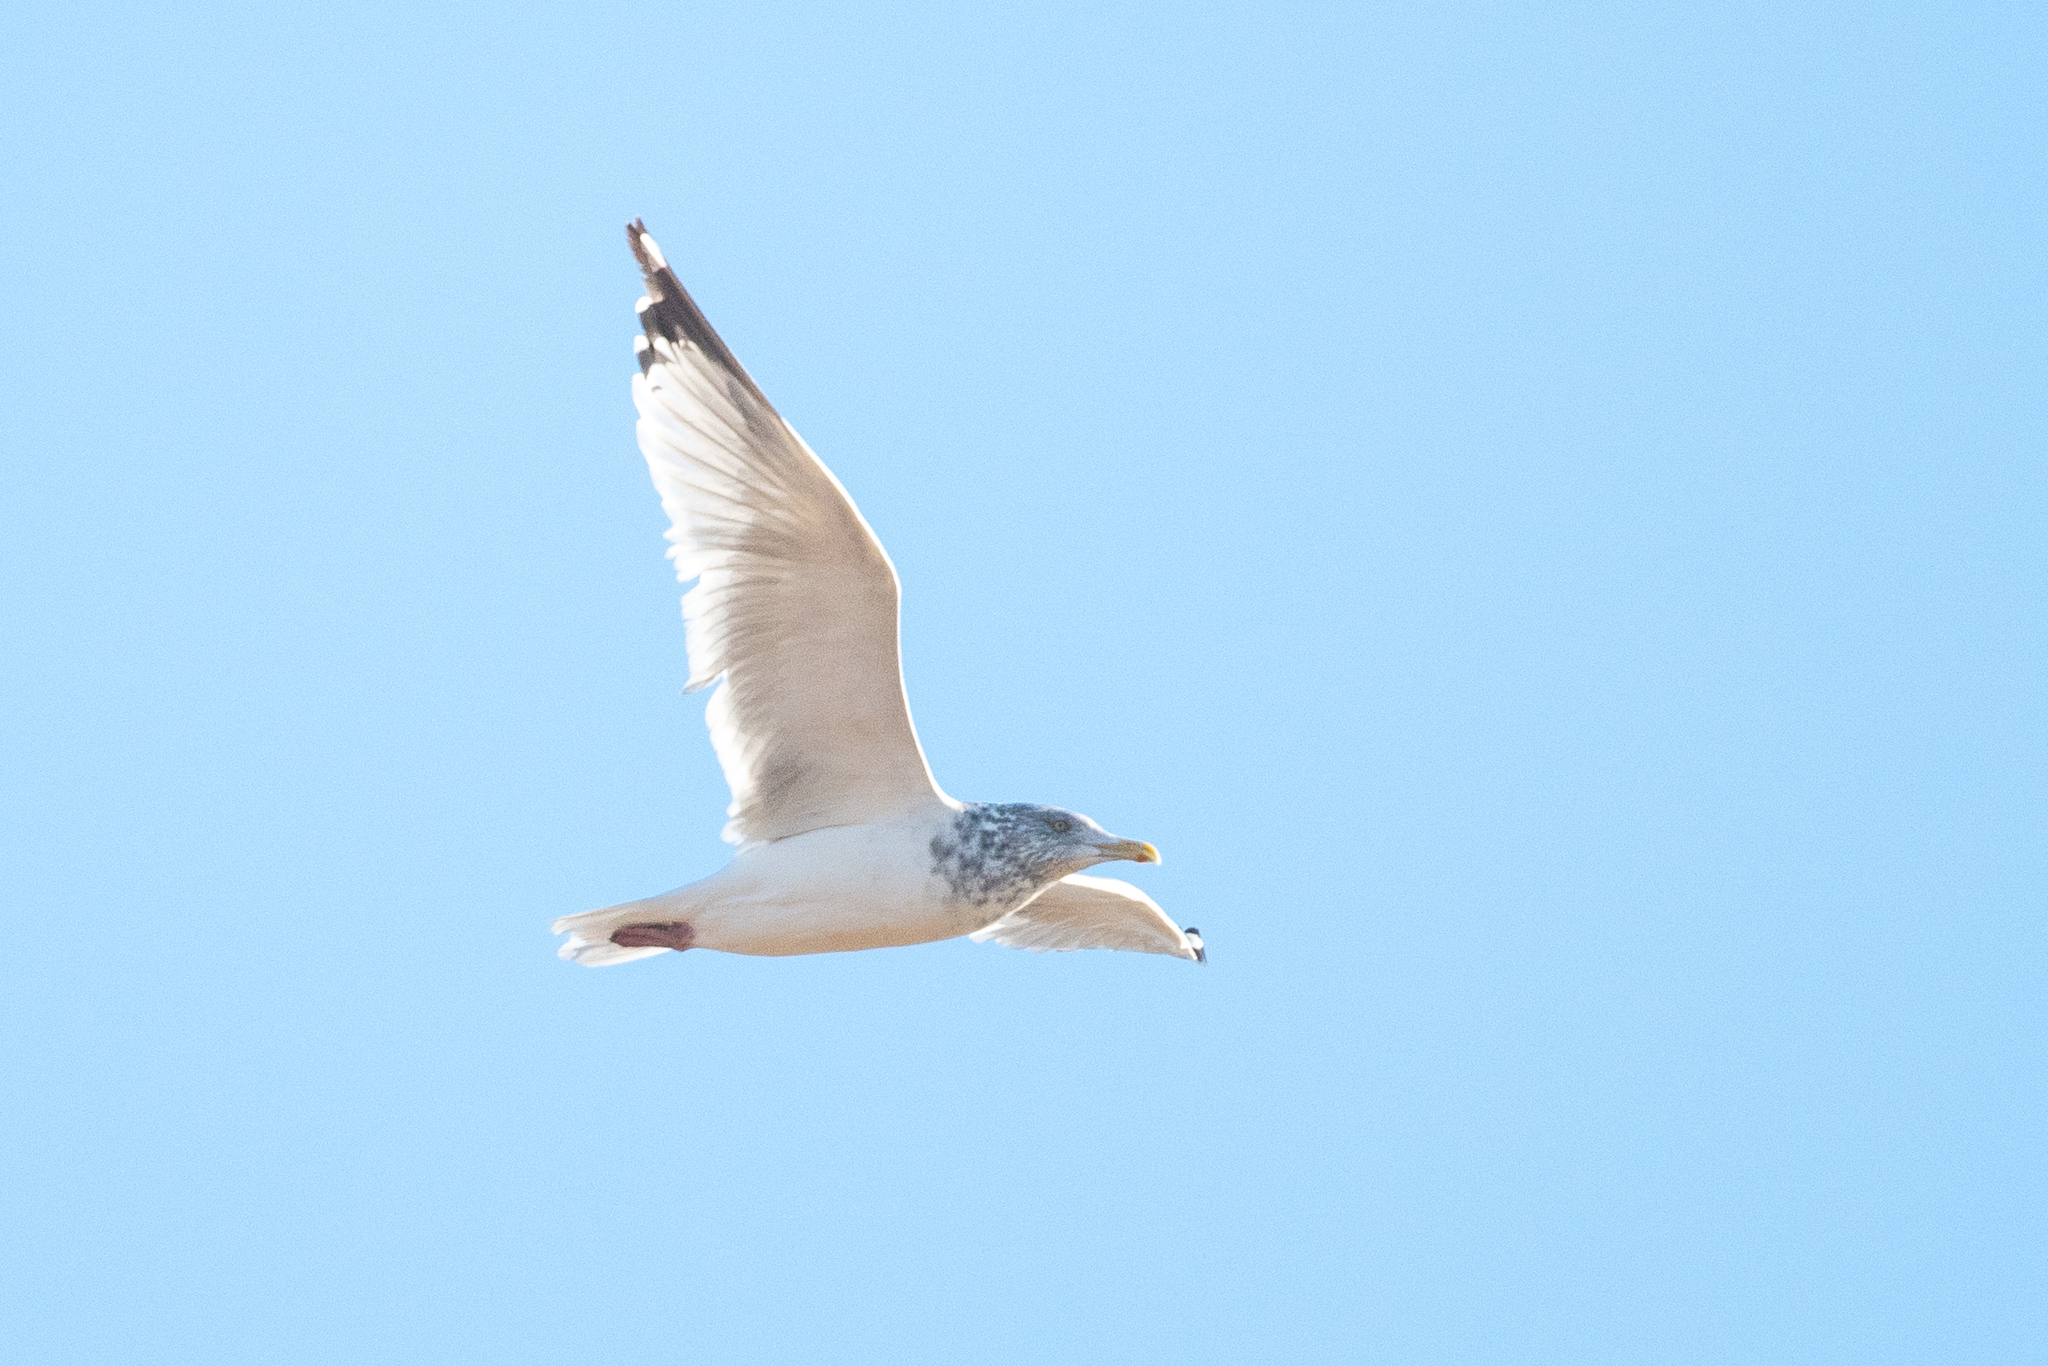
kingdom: Animalia
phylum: Chordata
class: Aves
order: Charadriiformes
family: Laridae
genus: Larus
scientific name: Larus argentatus
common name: Herring gull
